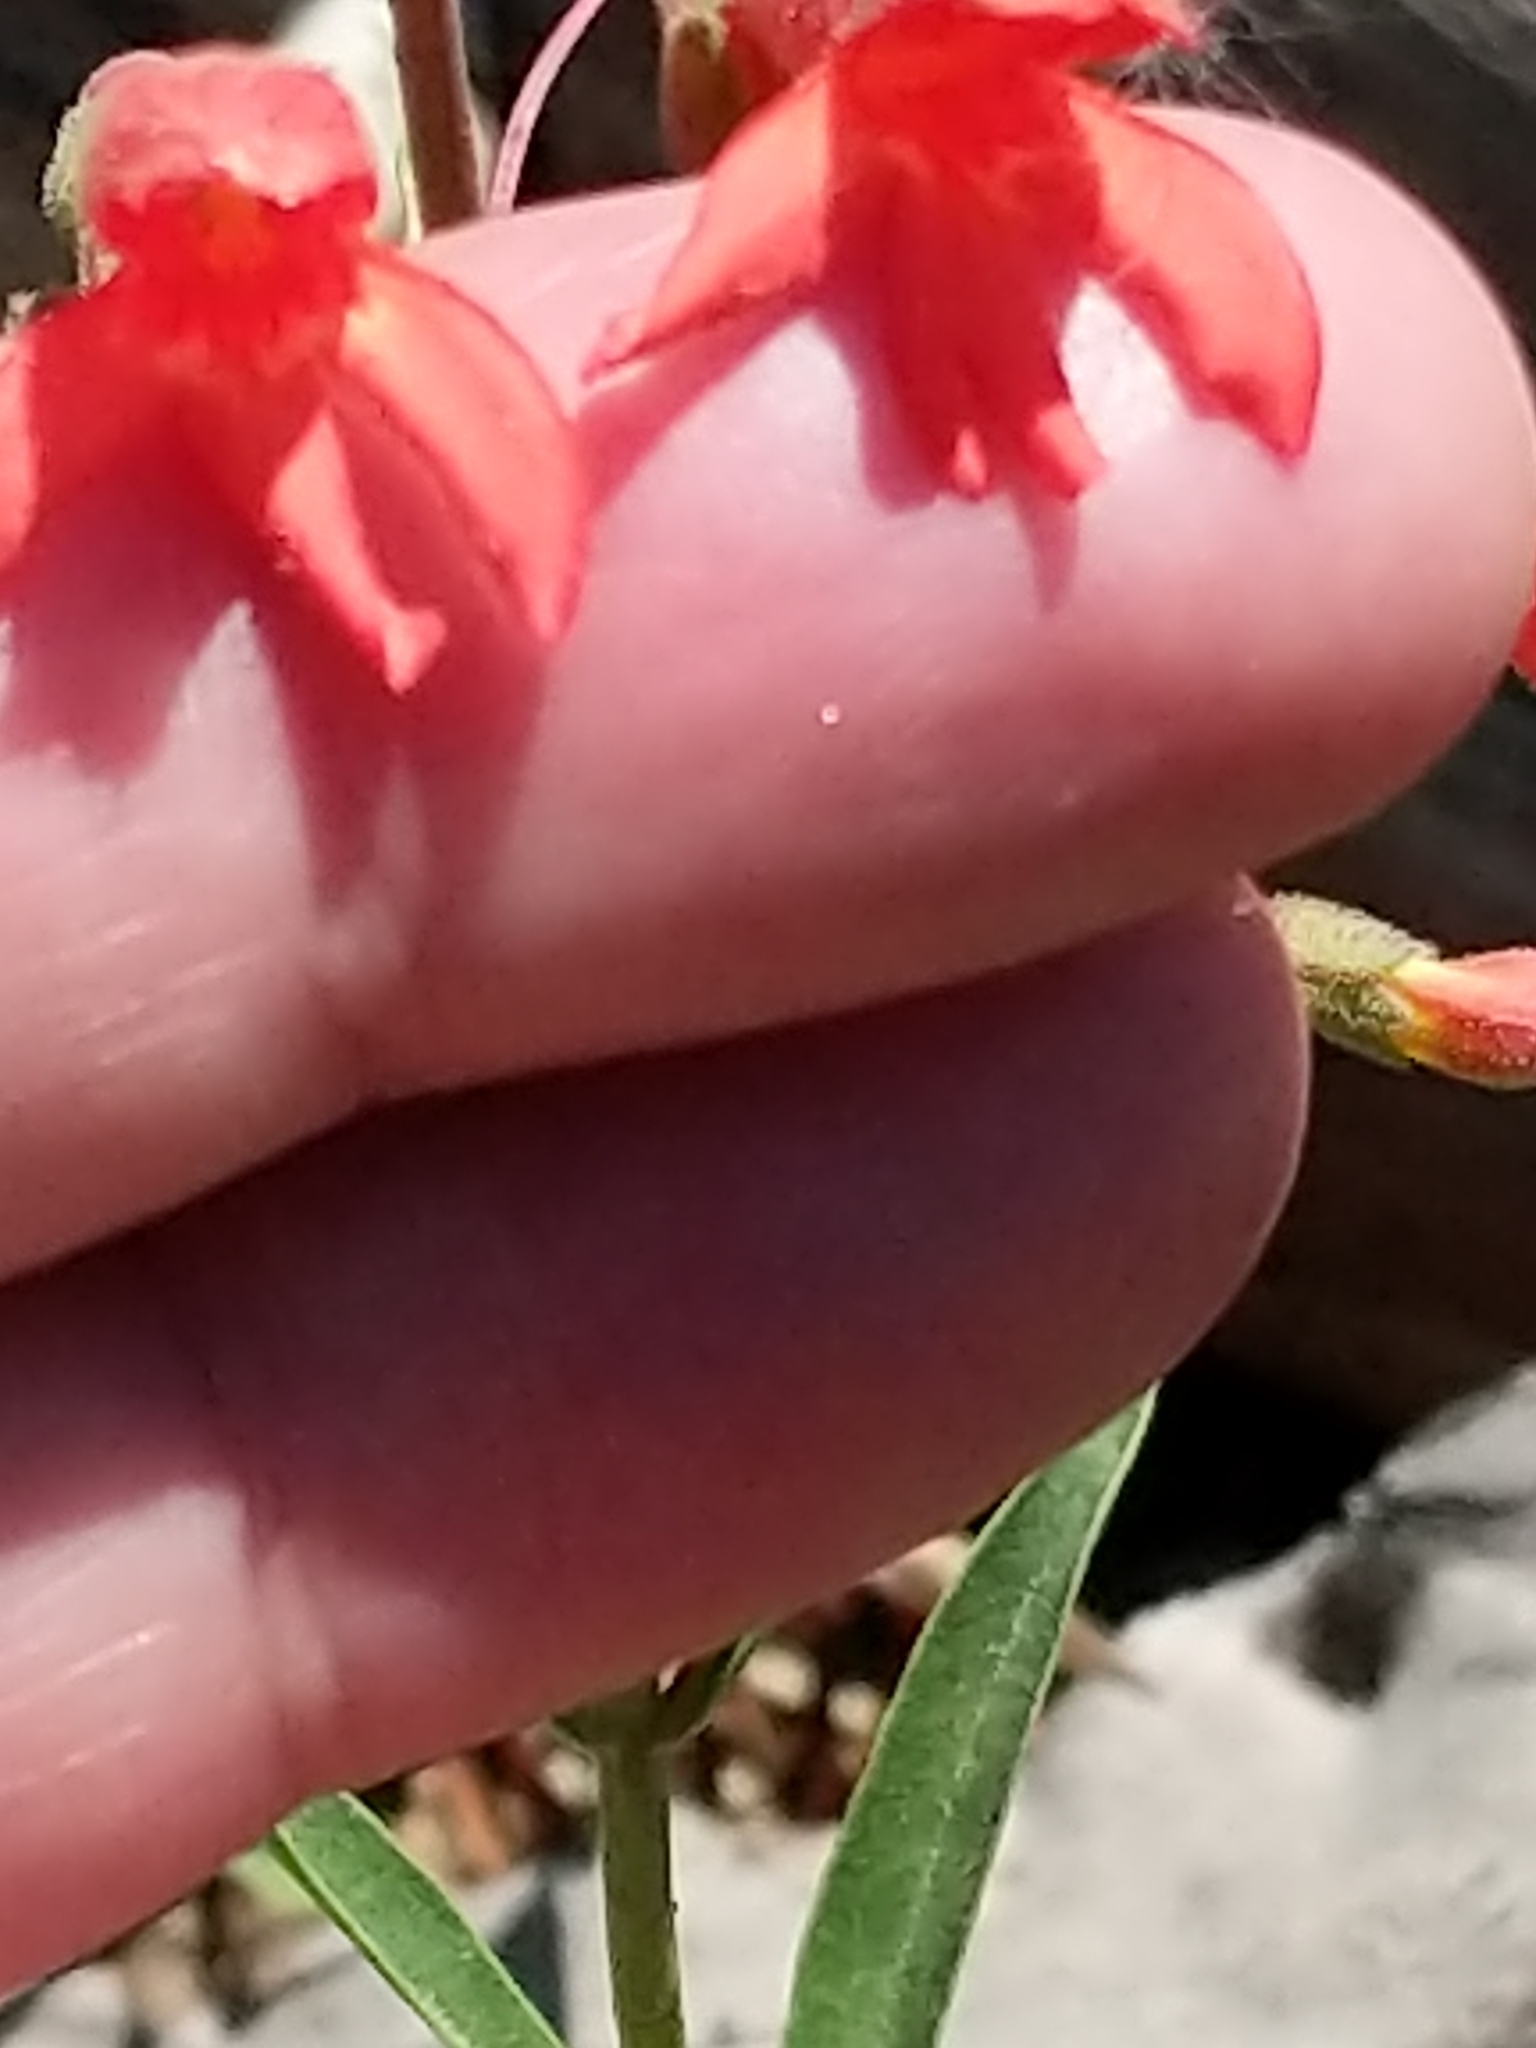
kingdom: Plantae
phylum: Tracheophyta
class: Magnoliopsida
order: Lamiales
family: Plantaginaceae
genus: Penstemon
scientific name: Penstemon rostriflorus
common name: Bridges's penstemon
